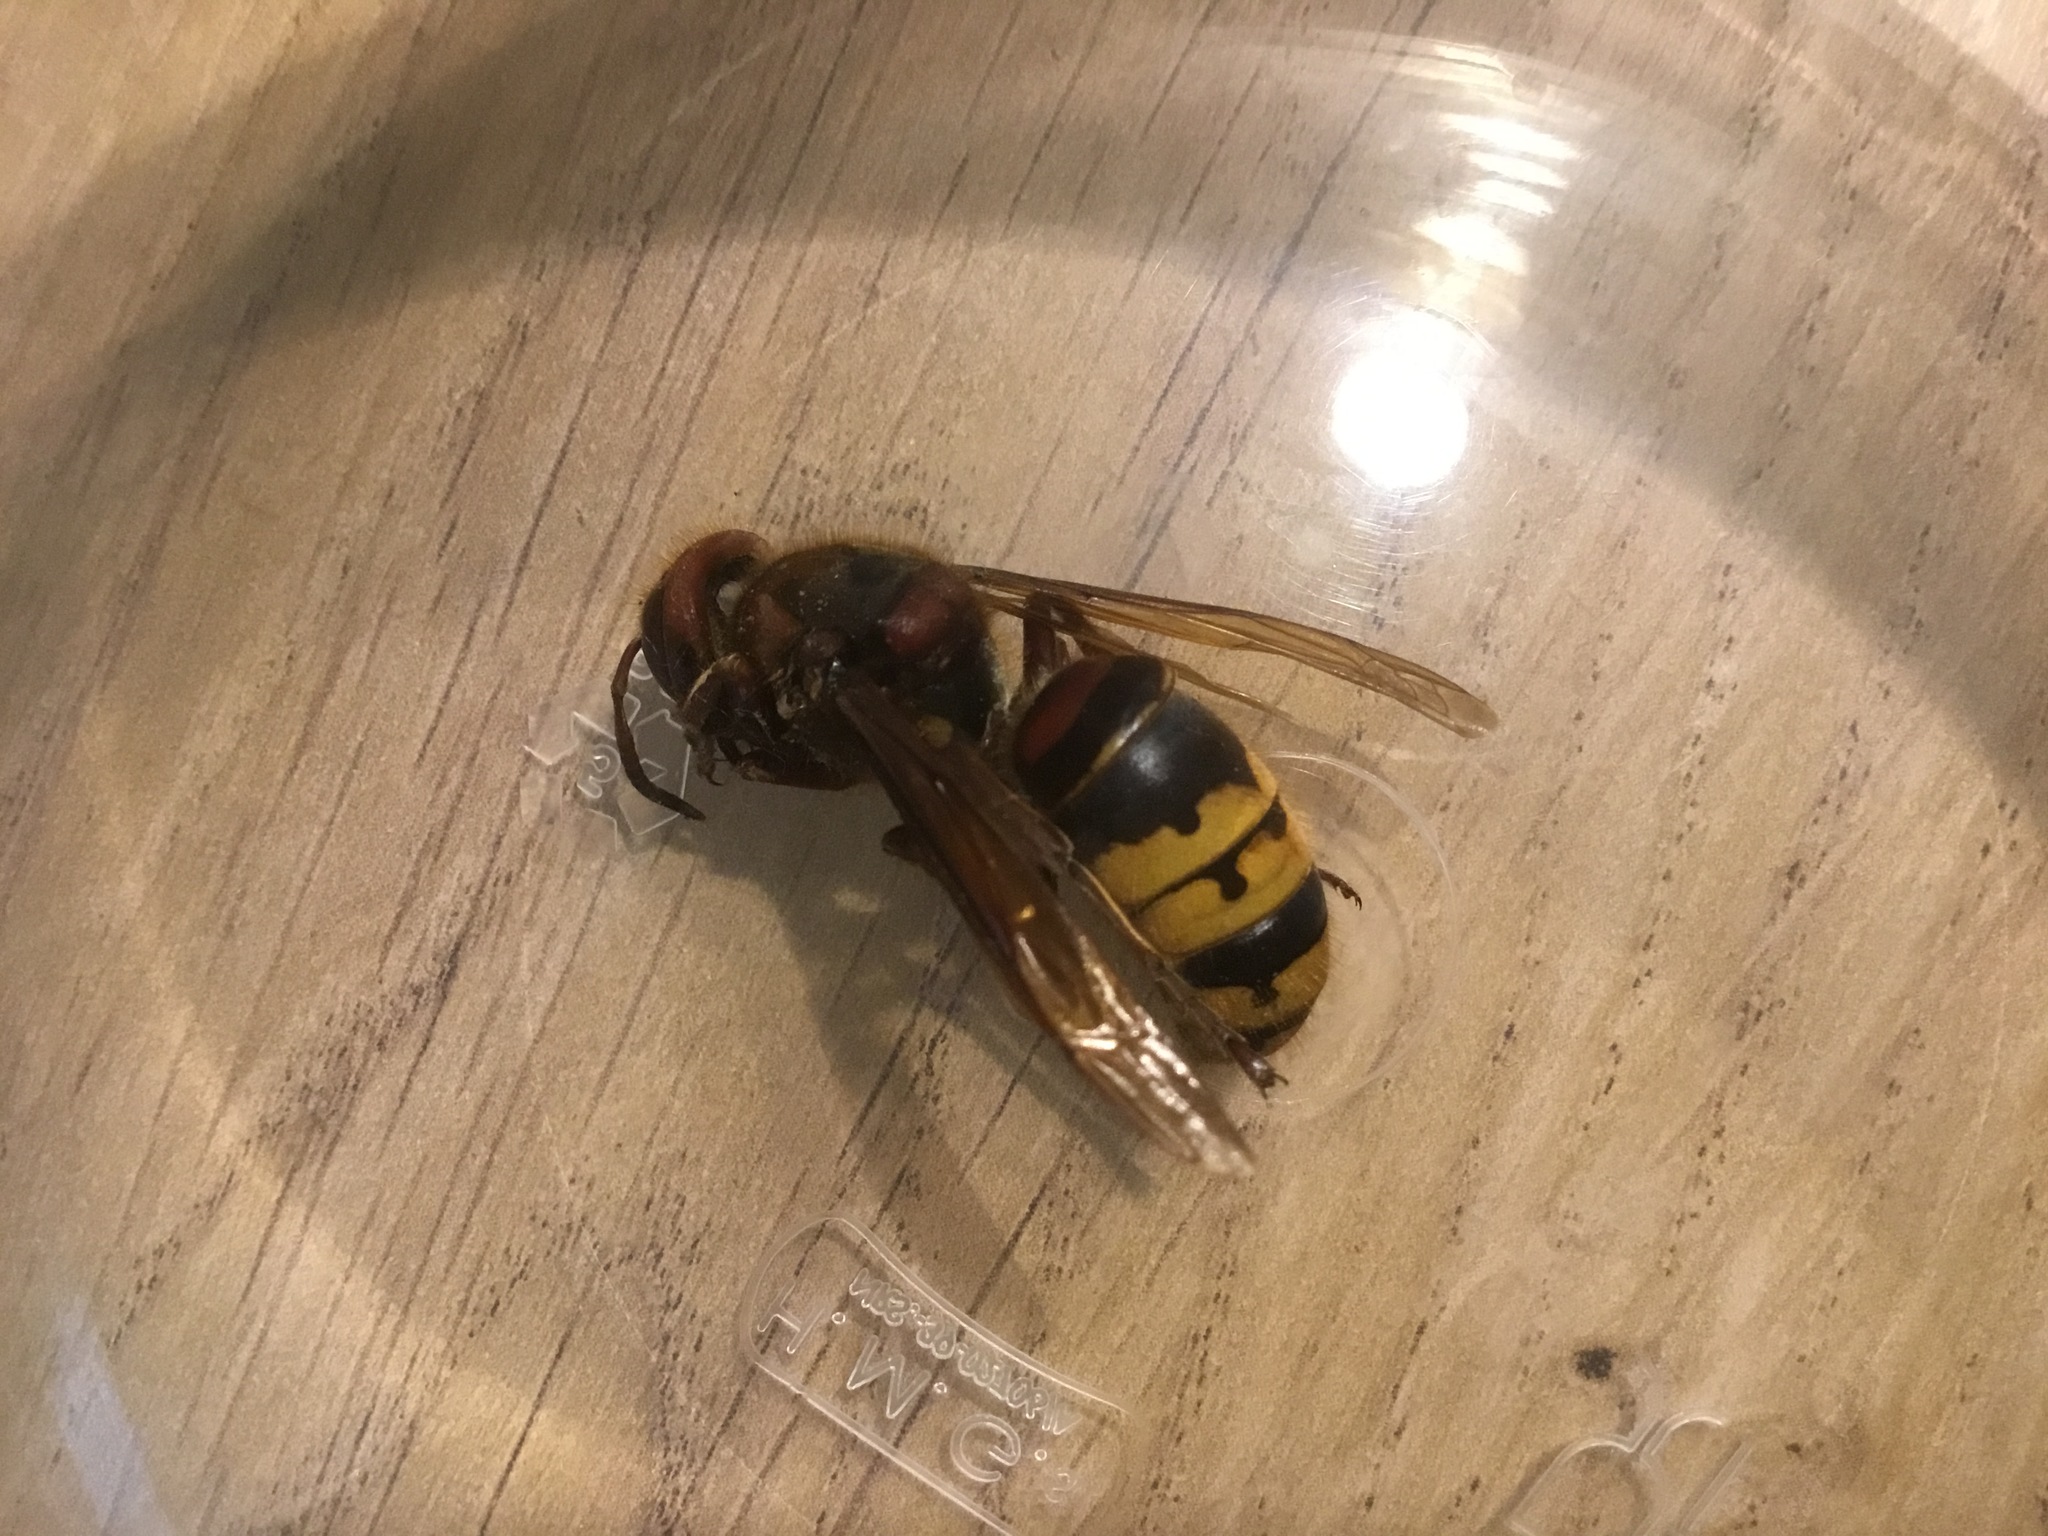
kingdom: Animalia
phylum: Arthropoda
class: Insecta
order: Hymenoptera
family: Vespidae
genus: Vespa
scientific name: Vespa crabro
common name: Hornet
